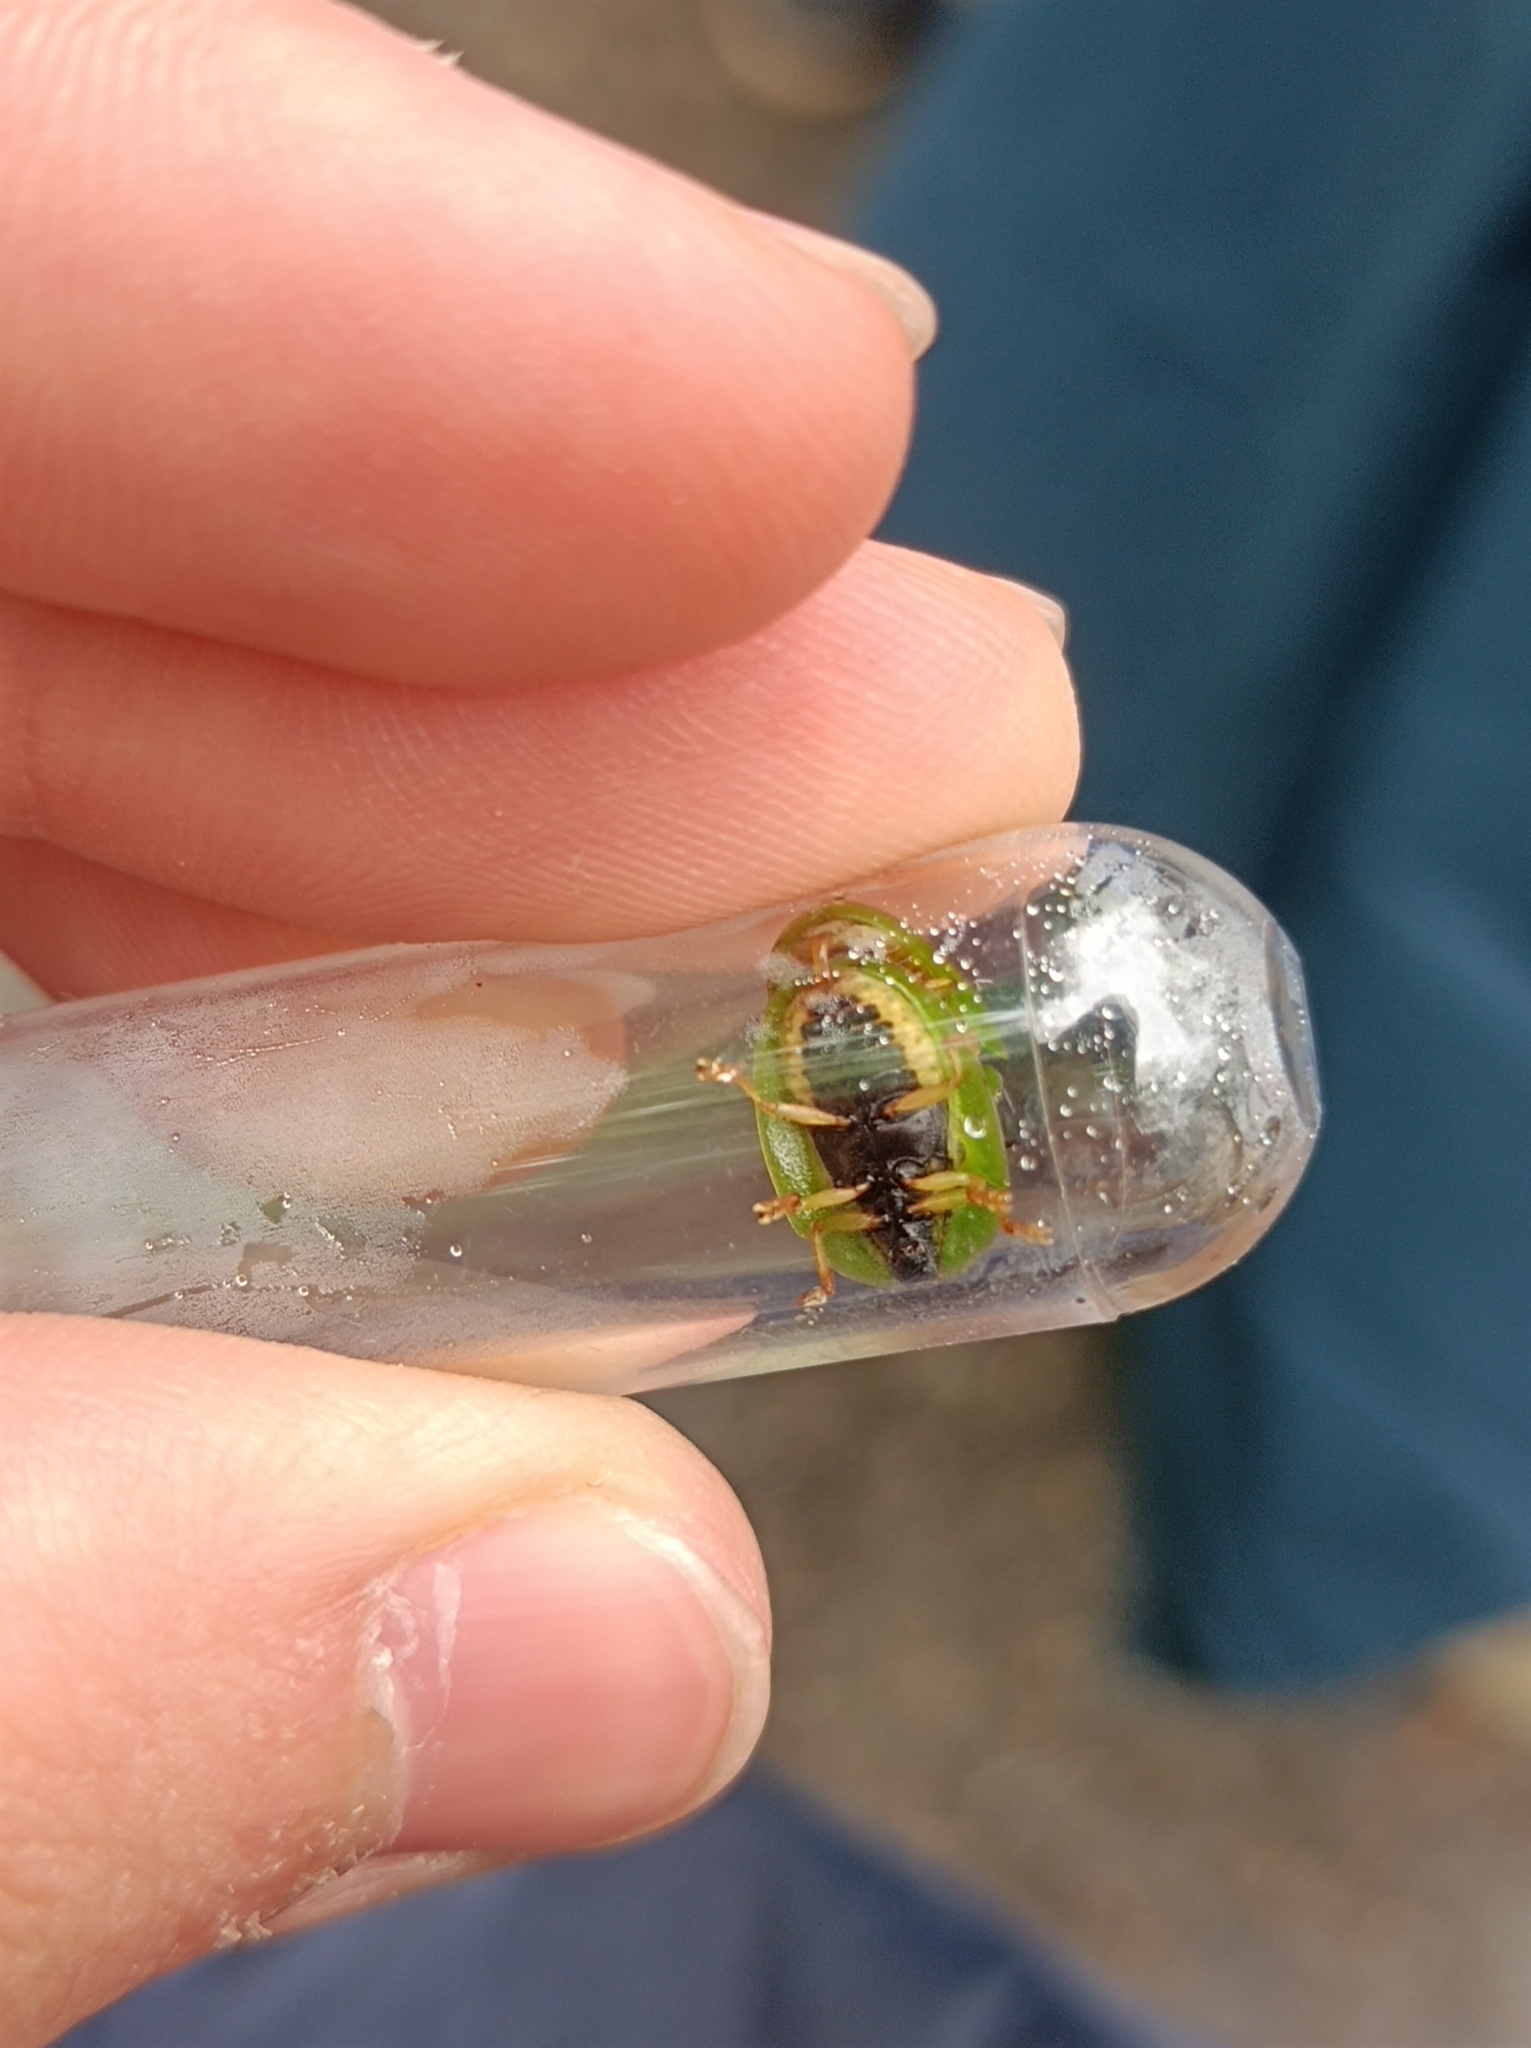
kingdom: Animalia
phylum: Arthropoda
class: Insecta
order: Coleoptera
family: Chrysomelidae
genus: Cassida
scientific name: Cassida viridis
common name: Green tortoise beetle
